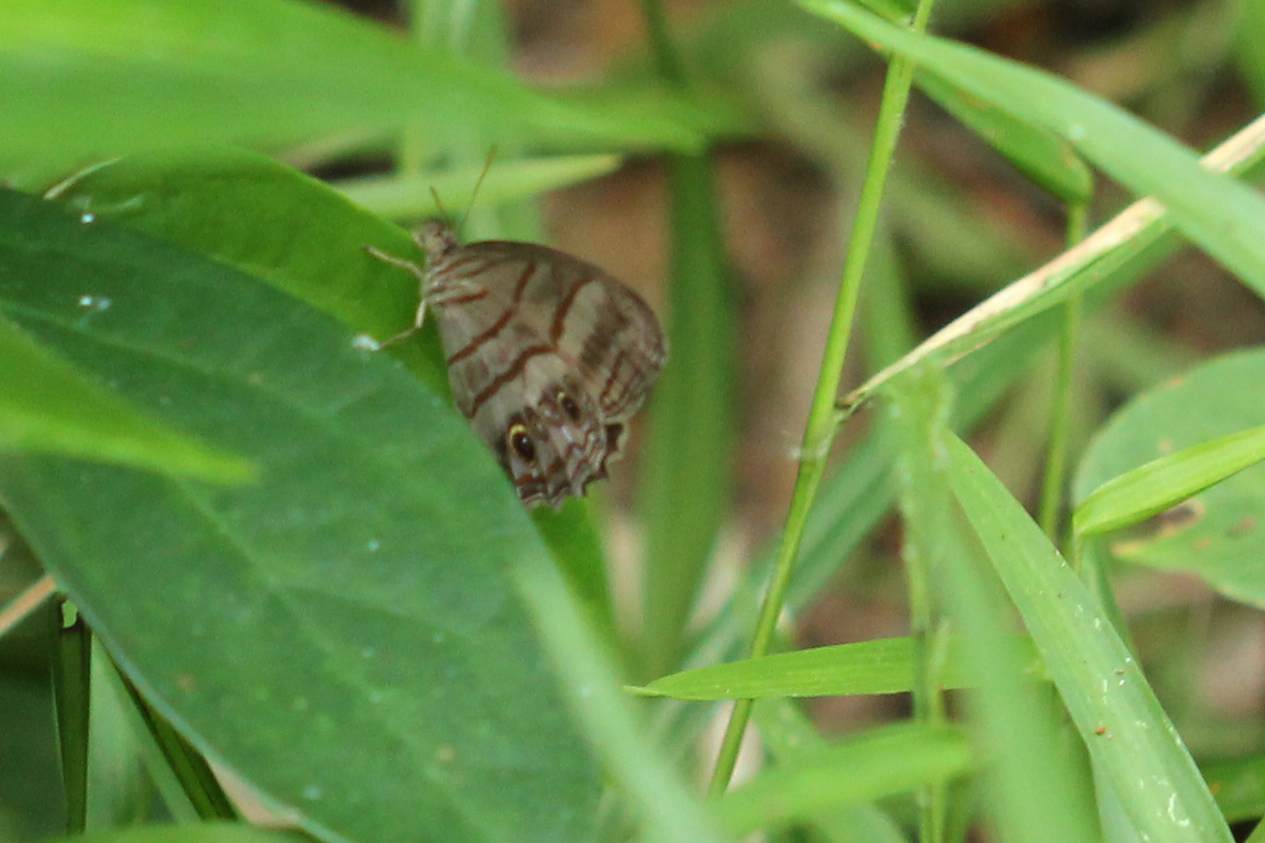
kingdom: Animalia
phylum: Arthropoda
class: Insecta
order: Lepidoptera
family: Nymphalidae
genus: Magneuptychia
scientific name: Magneuptychia libye
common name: Blue-gray satyr
